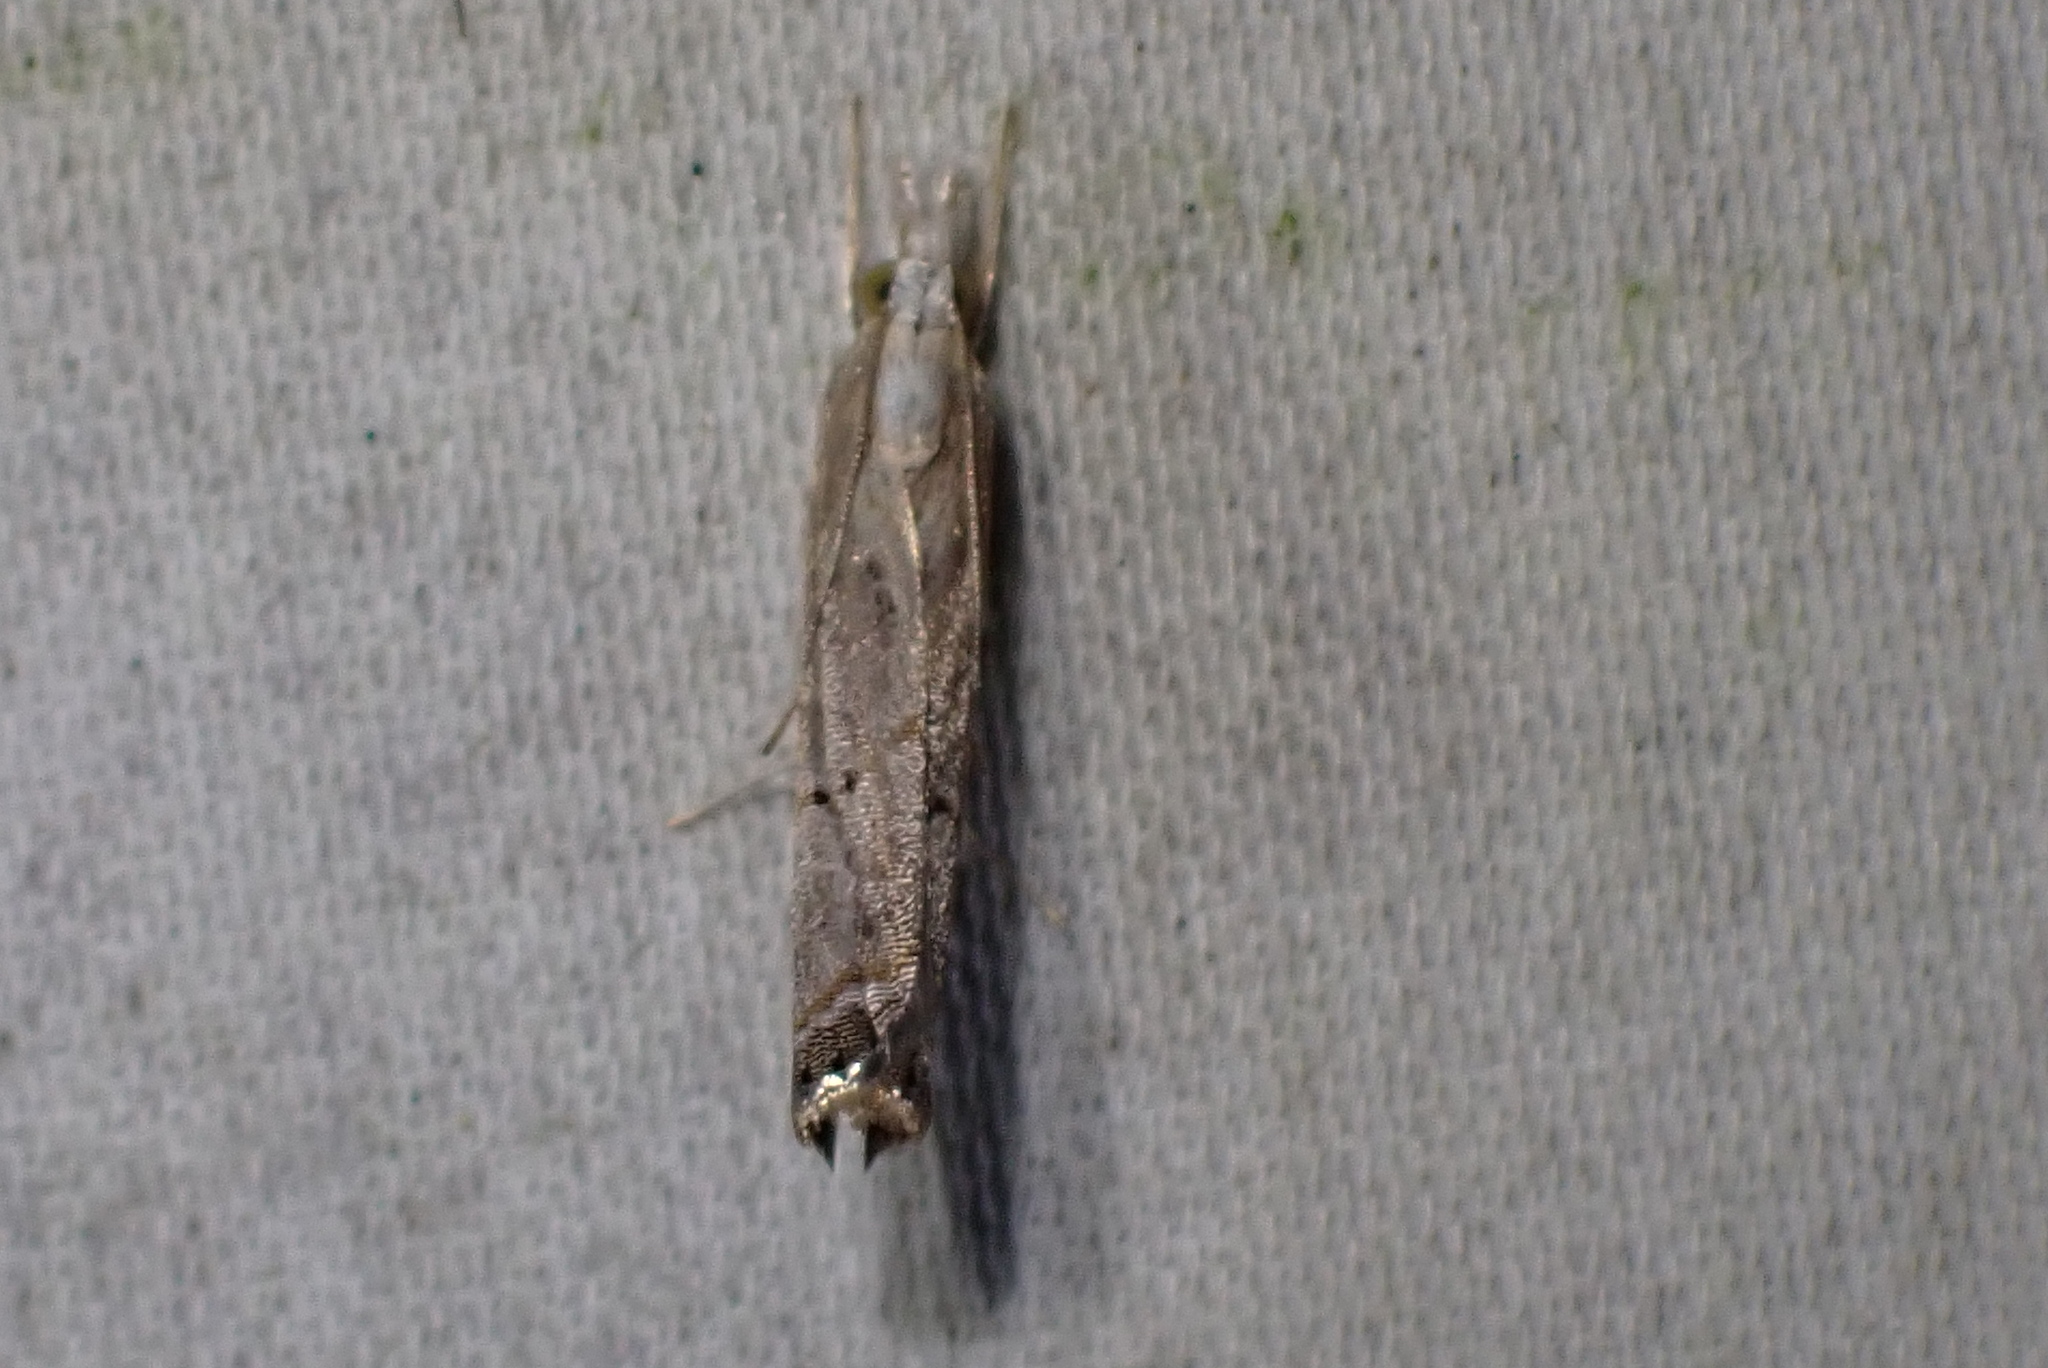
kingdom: Animalia
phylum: Arthropoda
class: Insecta
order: Lepidoptera
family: Crambidae
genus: Parapediasia
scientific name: Parapediasia teterellus
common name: Bluegrass webworm moth
